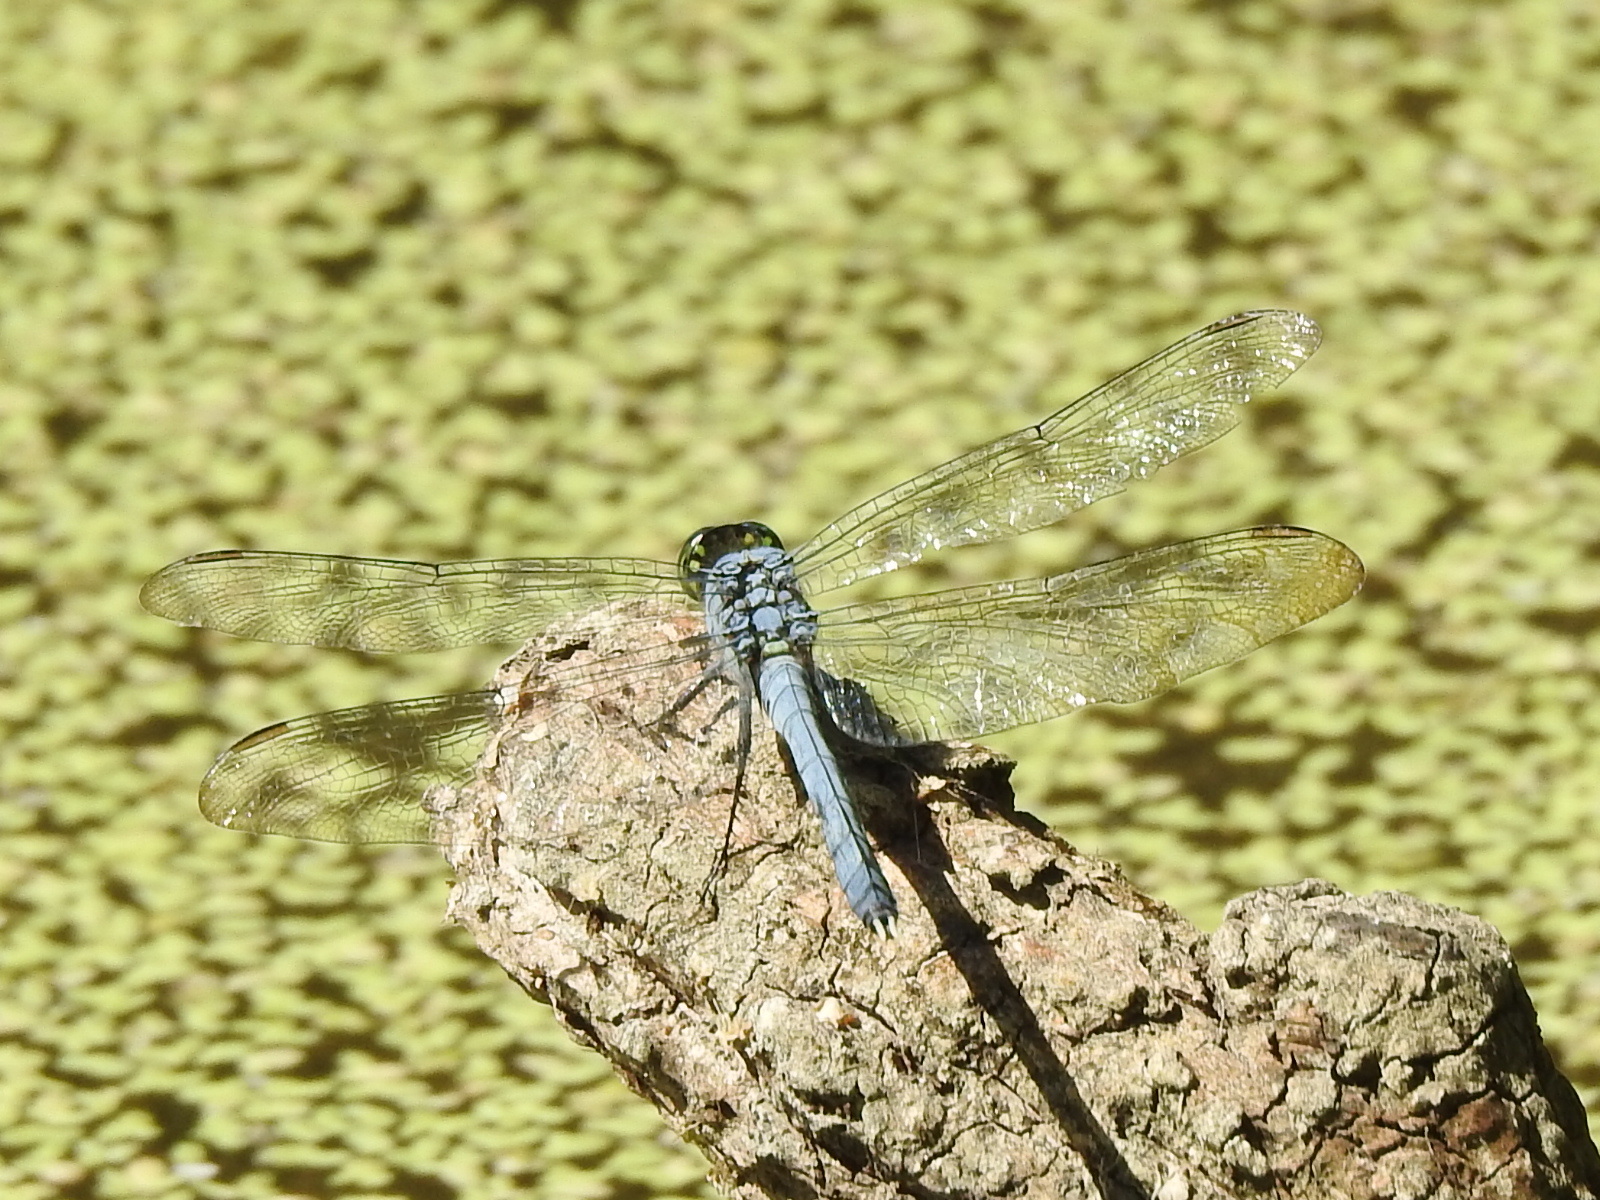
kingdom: Animalia
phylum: Arthropoda
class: Insecta
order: Odonata
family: Libellulidae
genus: Erythemis
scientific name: Erythemis simplicicollis
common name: Eastern pondhawk
